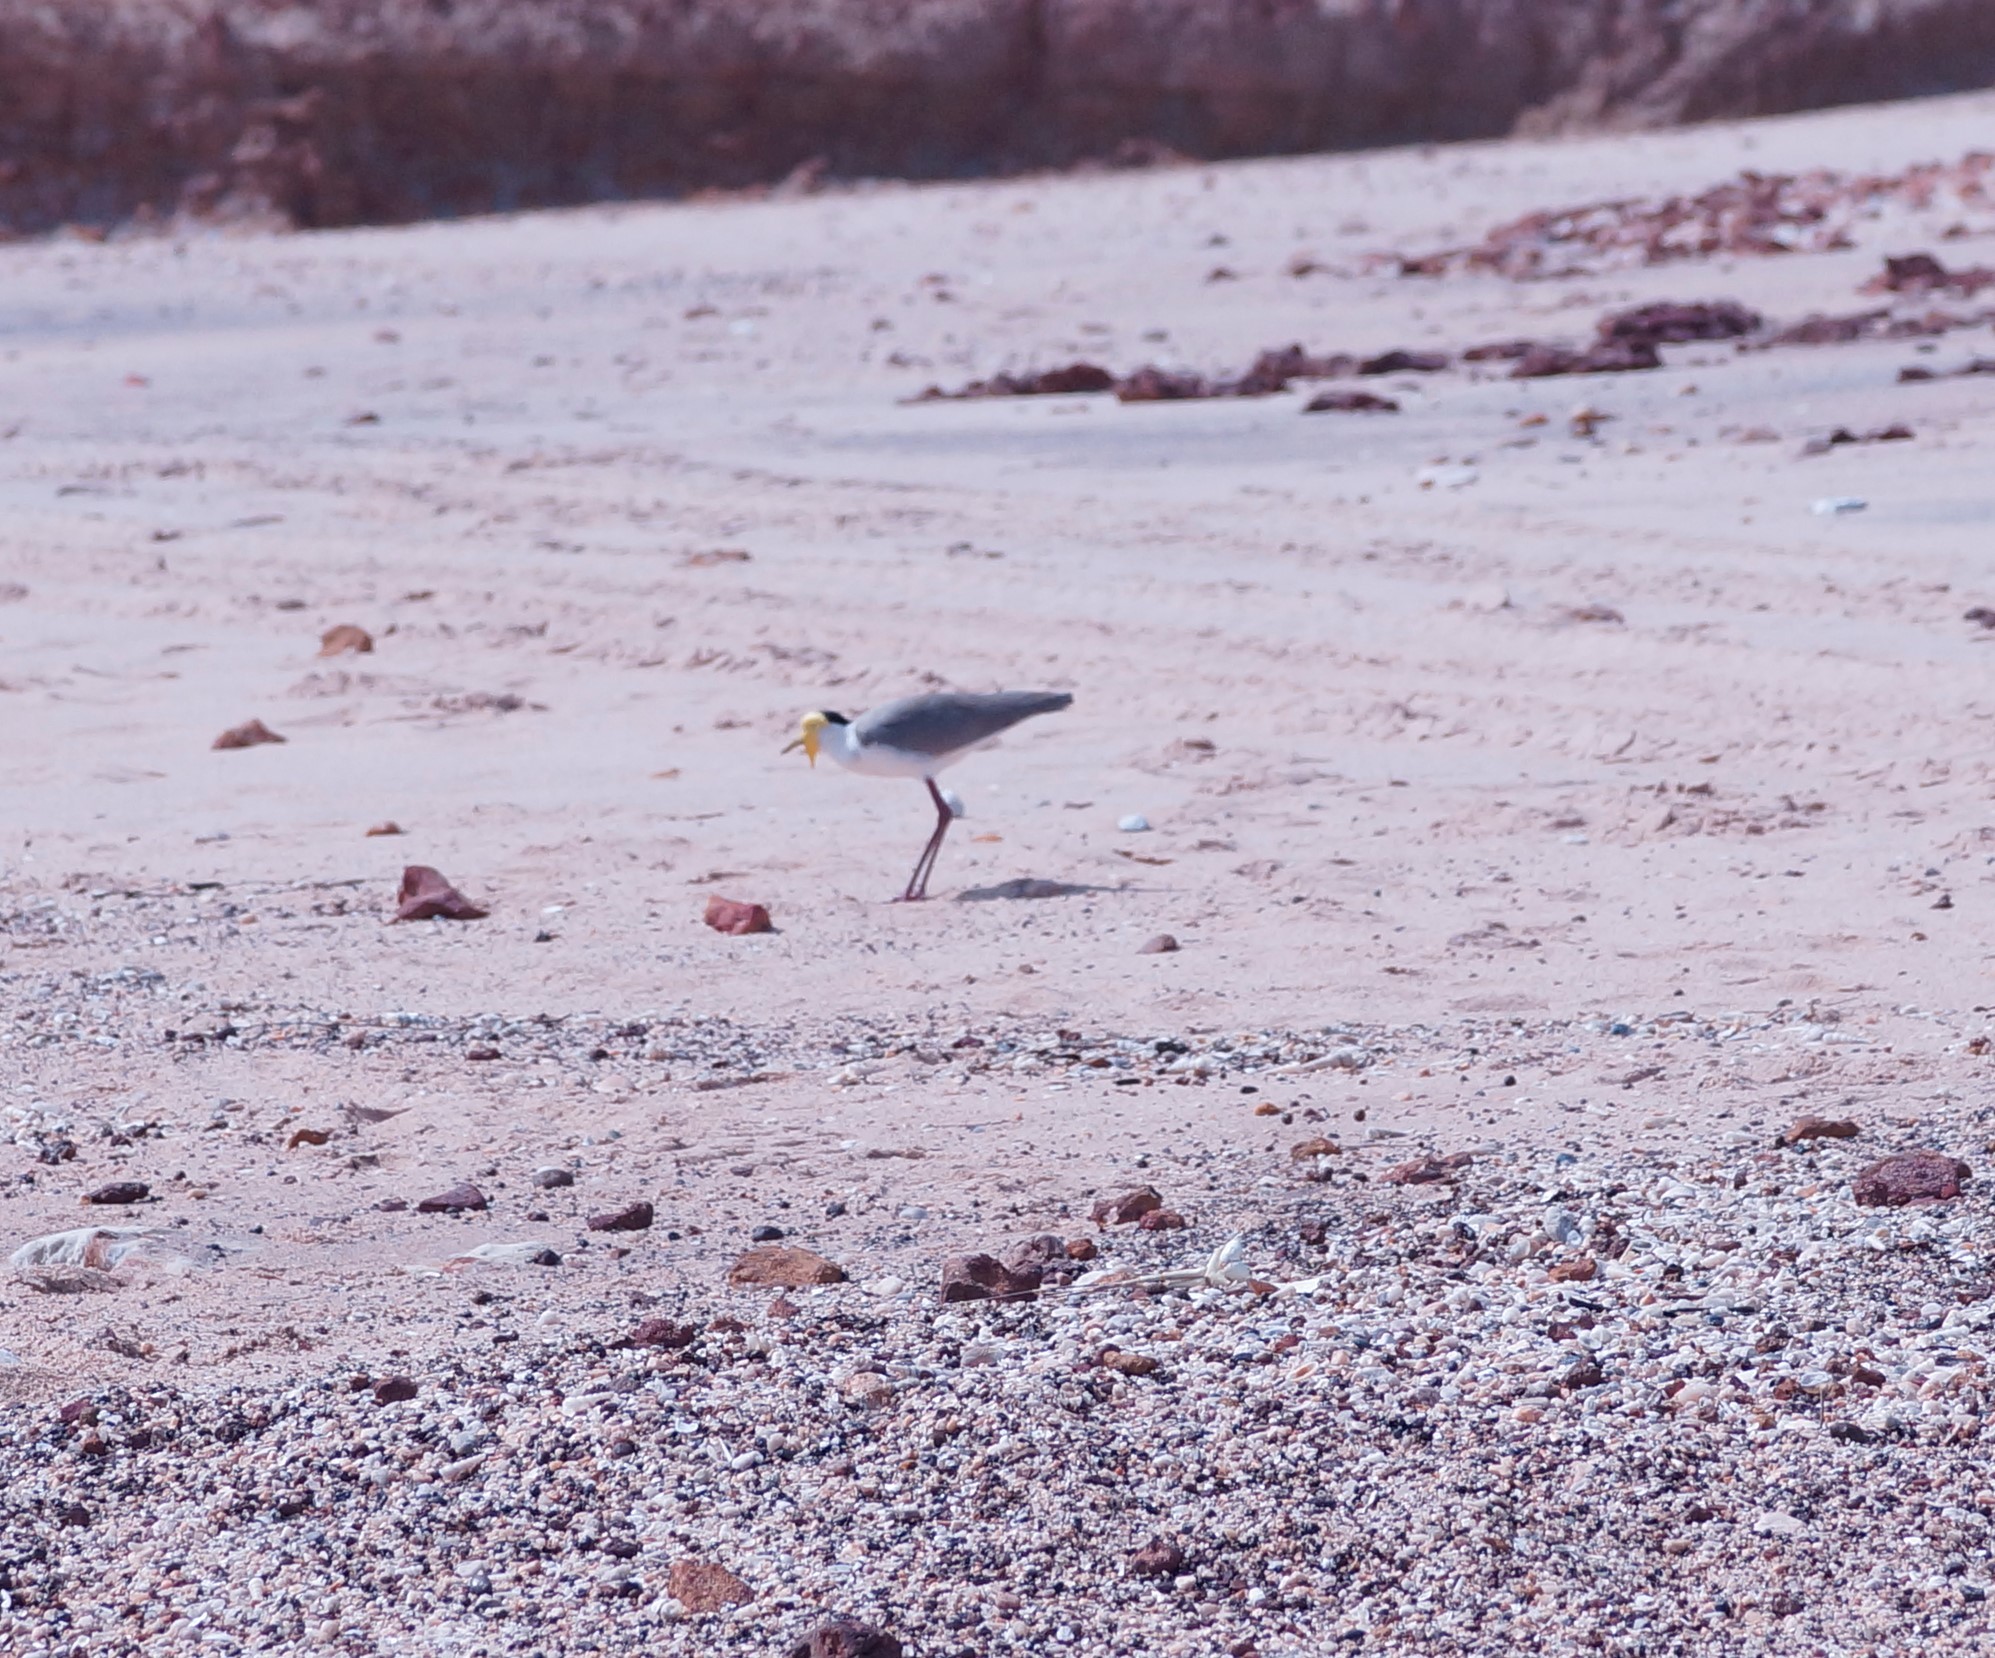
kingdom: Animalia
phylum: Chordata
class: Aves
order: Charadriiformes
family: Charadriidae
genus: Vanellus
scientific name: Vanellus miles
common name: Masked lapwing
